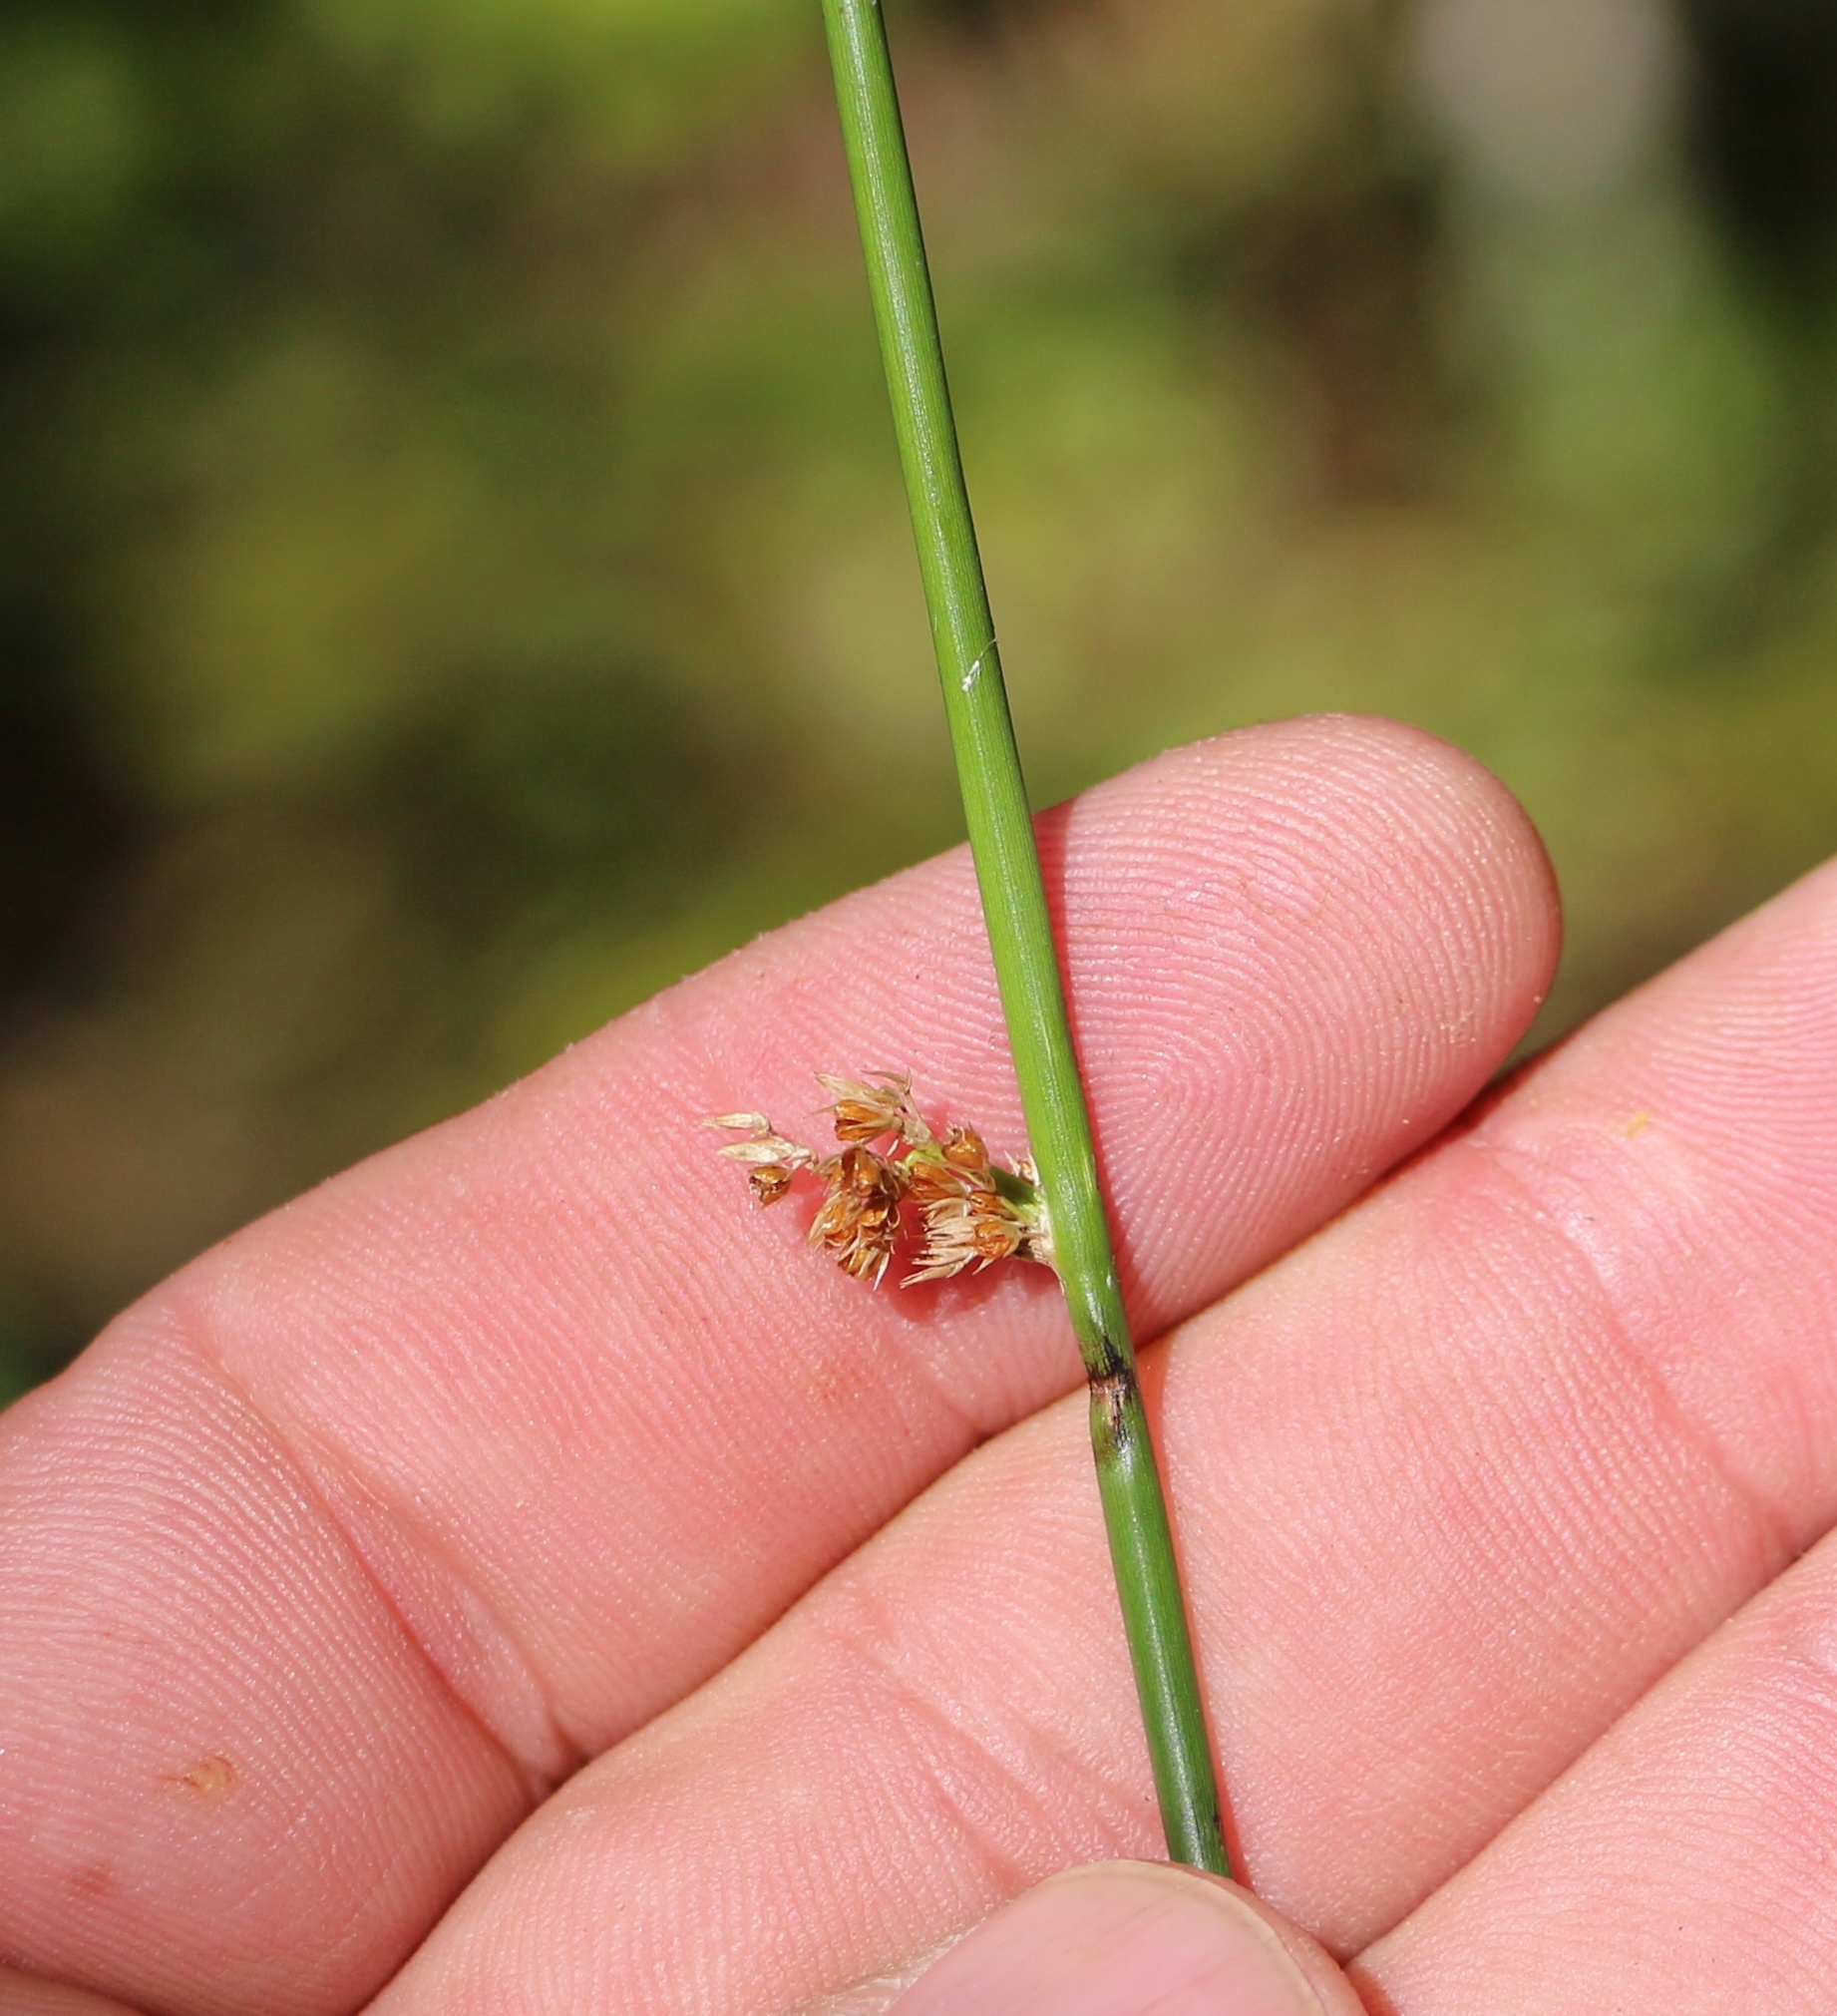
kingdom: Plantae
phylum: Tracheophyta
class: Liliopsida
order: Poales
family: Juncaceae
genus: Juncus
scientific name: Juncus effusus
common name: Soft rush
